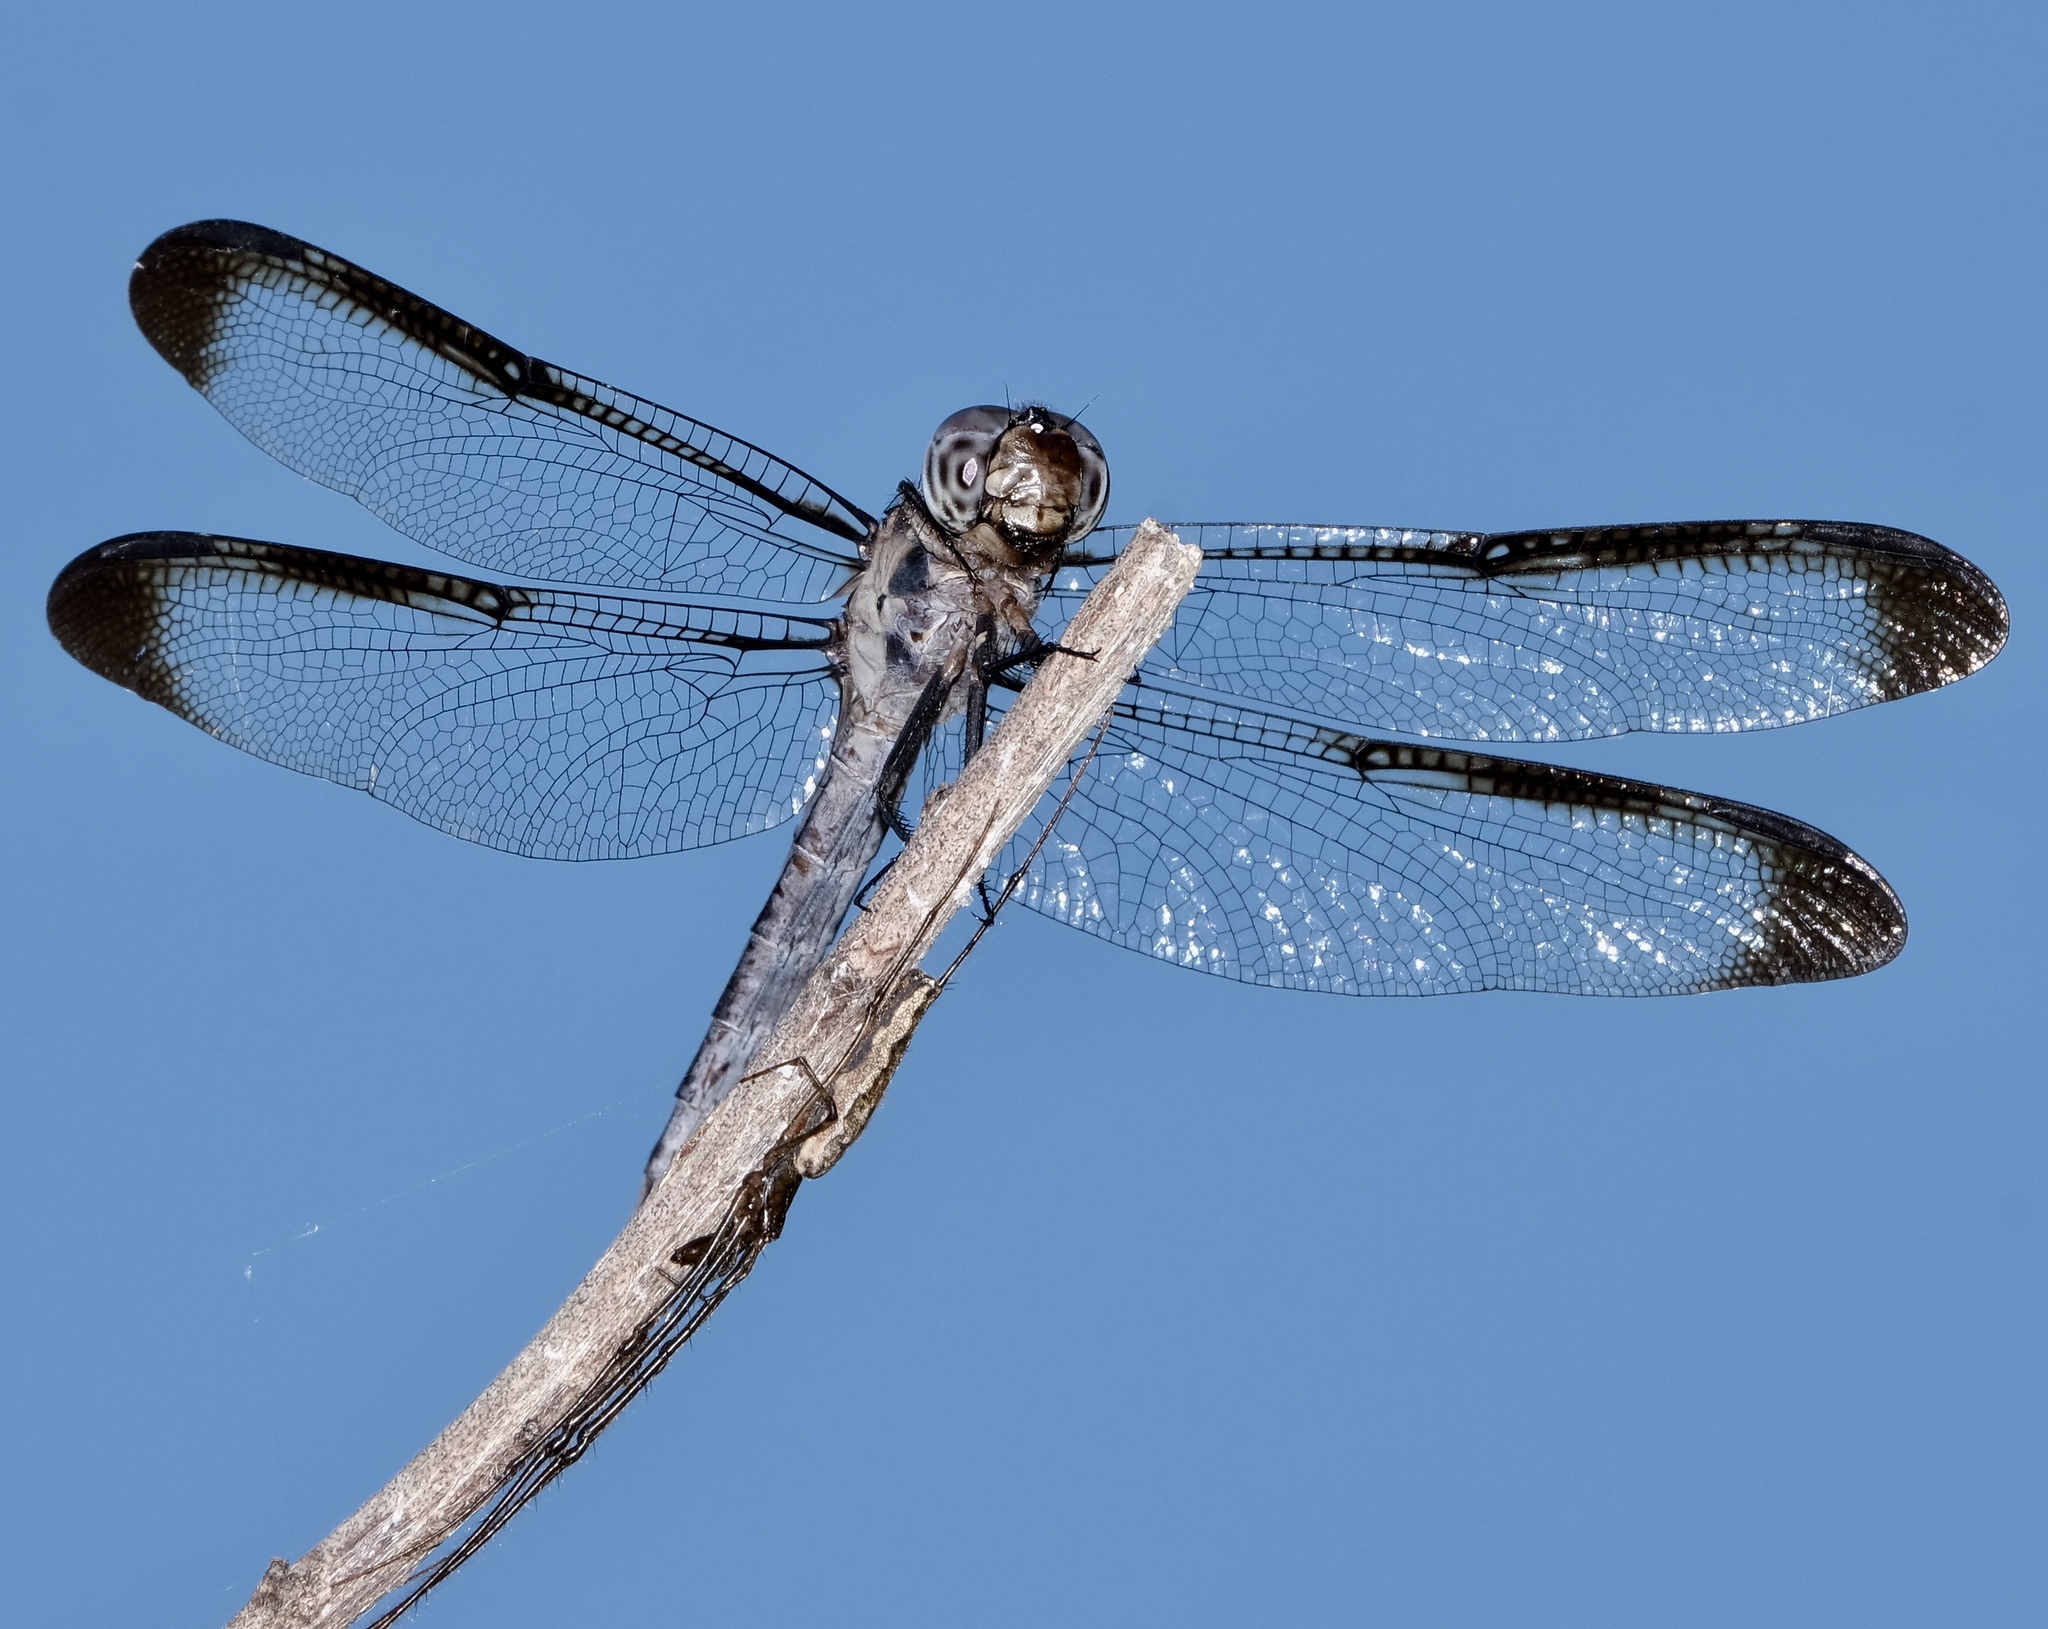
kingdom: Animalia
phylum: Arthropoda
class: Insecta
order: Odonata
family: Libellulidae
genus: Libellula
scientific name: Libellula incesta
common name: Slaty skimmer
